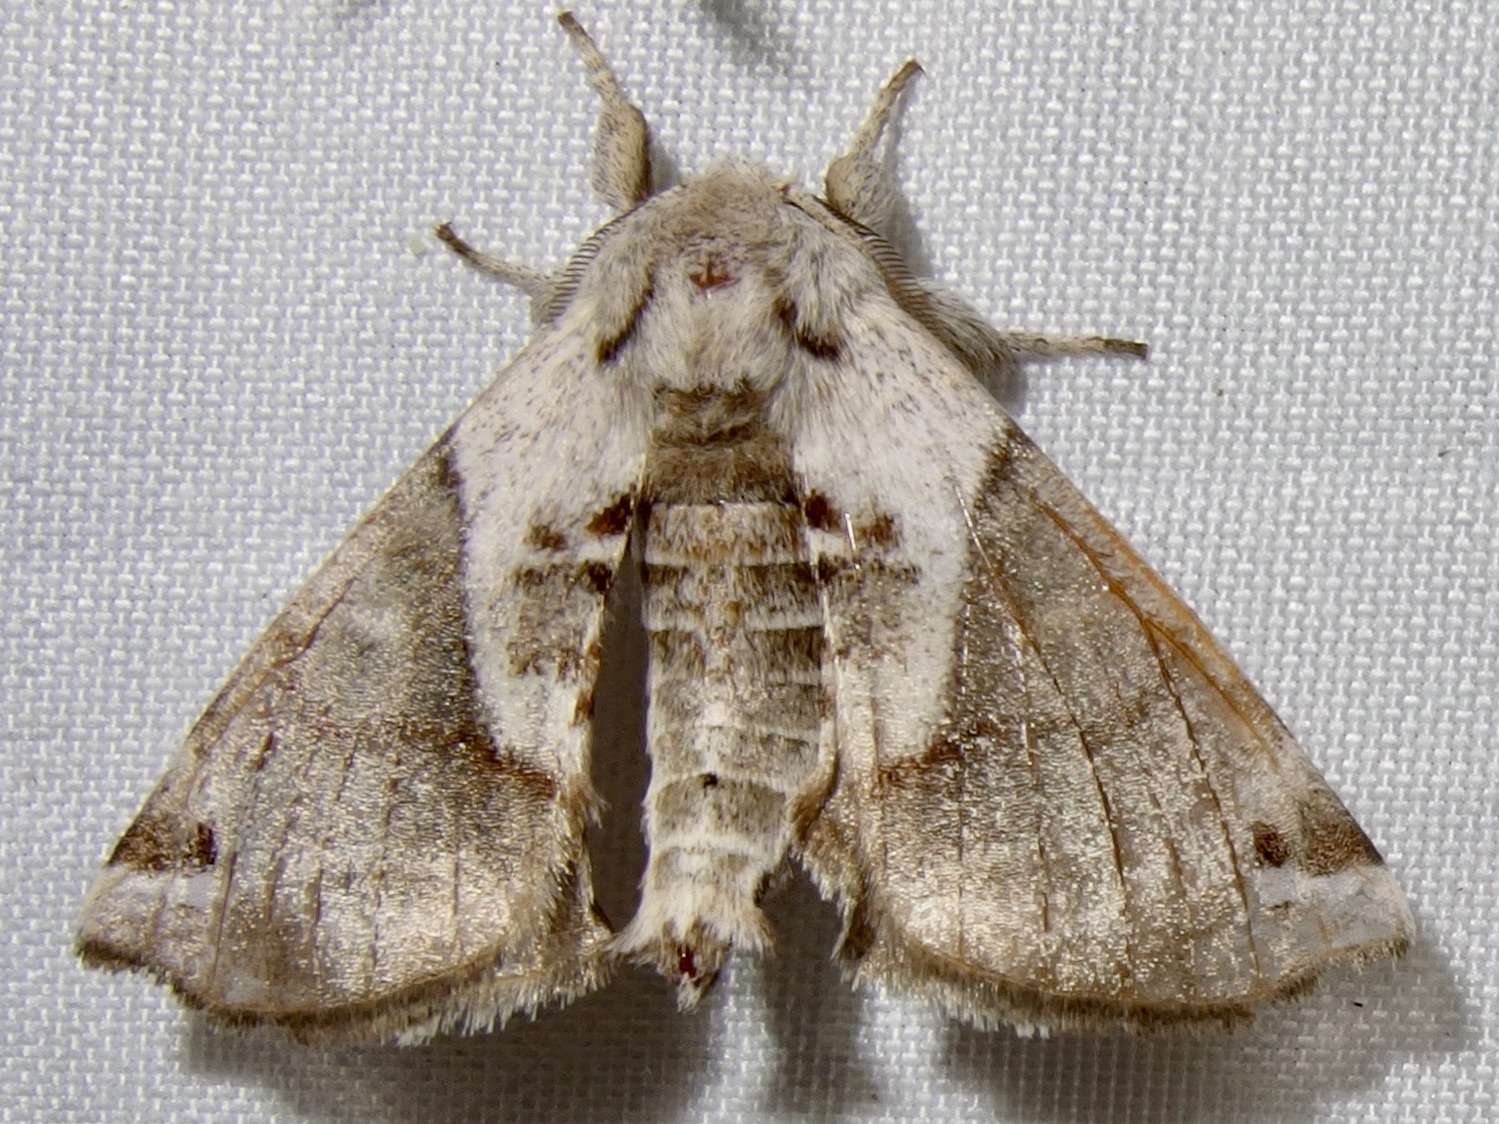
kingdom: Animalia
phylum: Arthropoda
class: Insecta
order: Lepidoptera
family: Apatelodidae
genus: Hygrochroa
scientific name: Hygrochroa Apatelodes pudefacta
